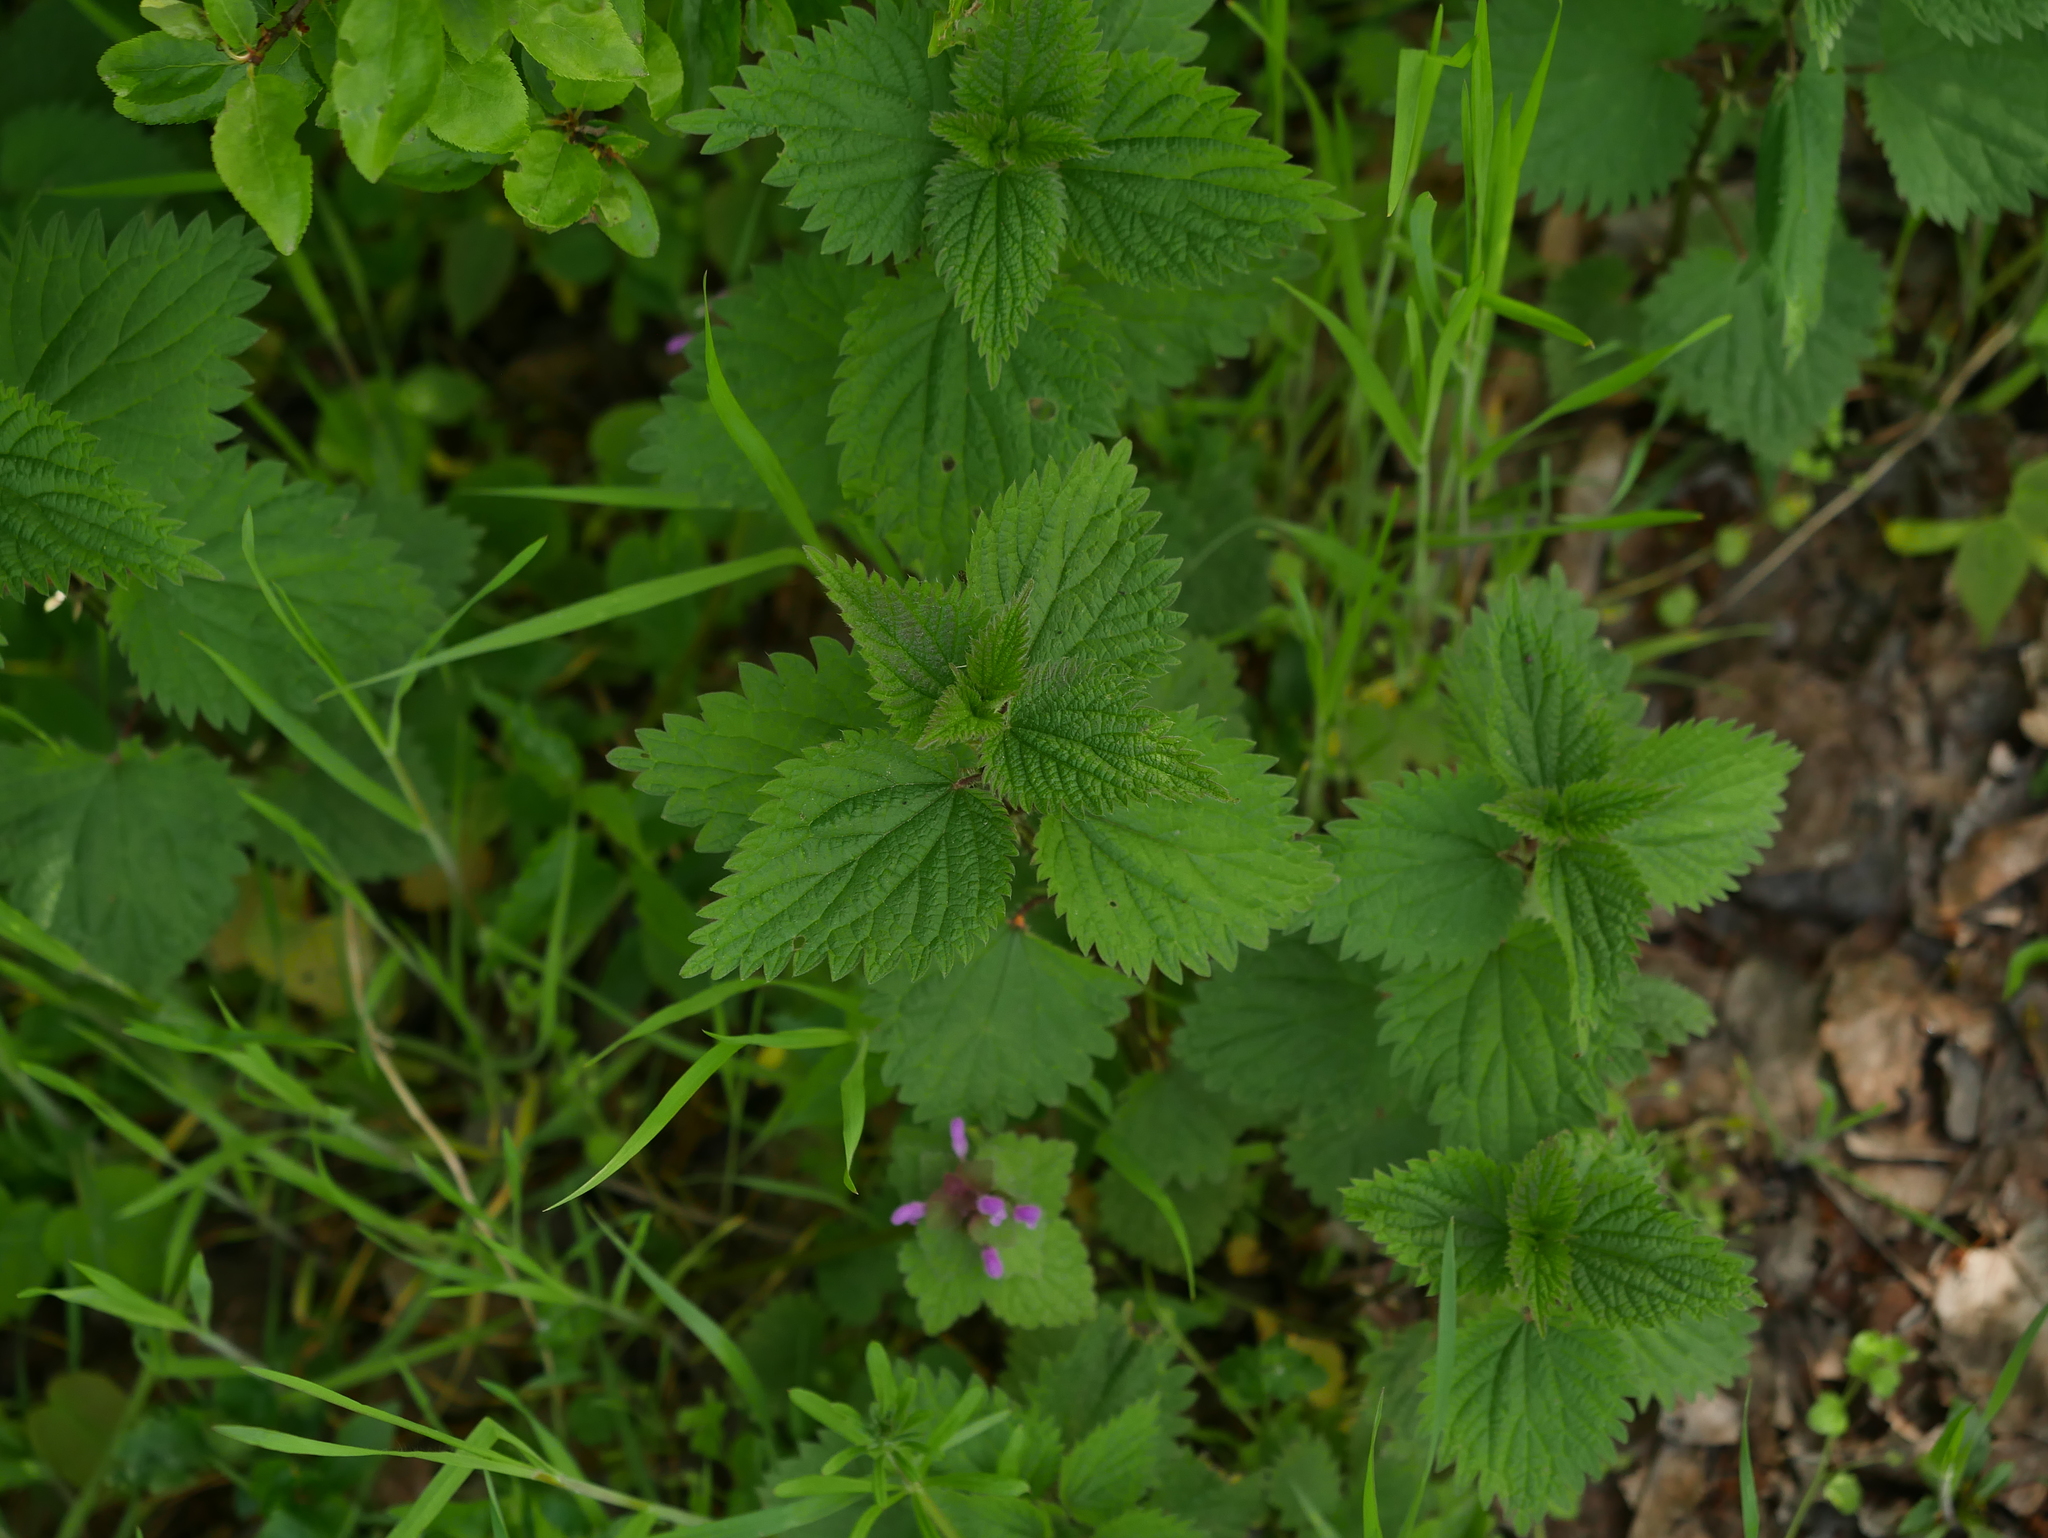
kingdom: Plantae
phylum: Tracheophyta
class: Magnoliopsida
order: Rosales
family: Urticaceae
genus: Urtica
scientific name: Urtica dioica
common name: Common nettle
